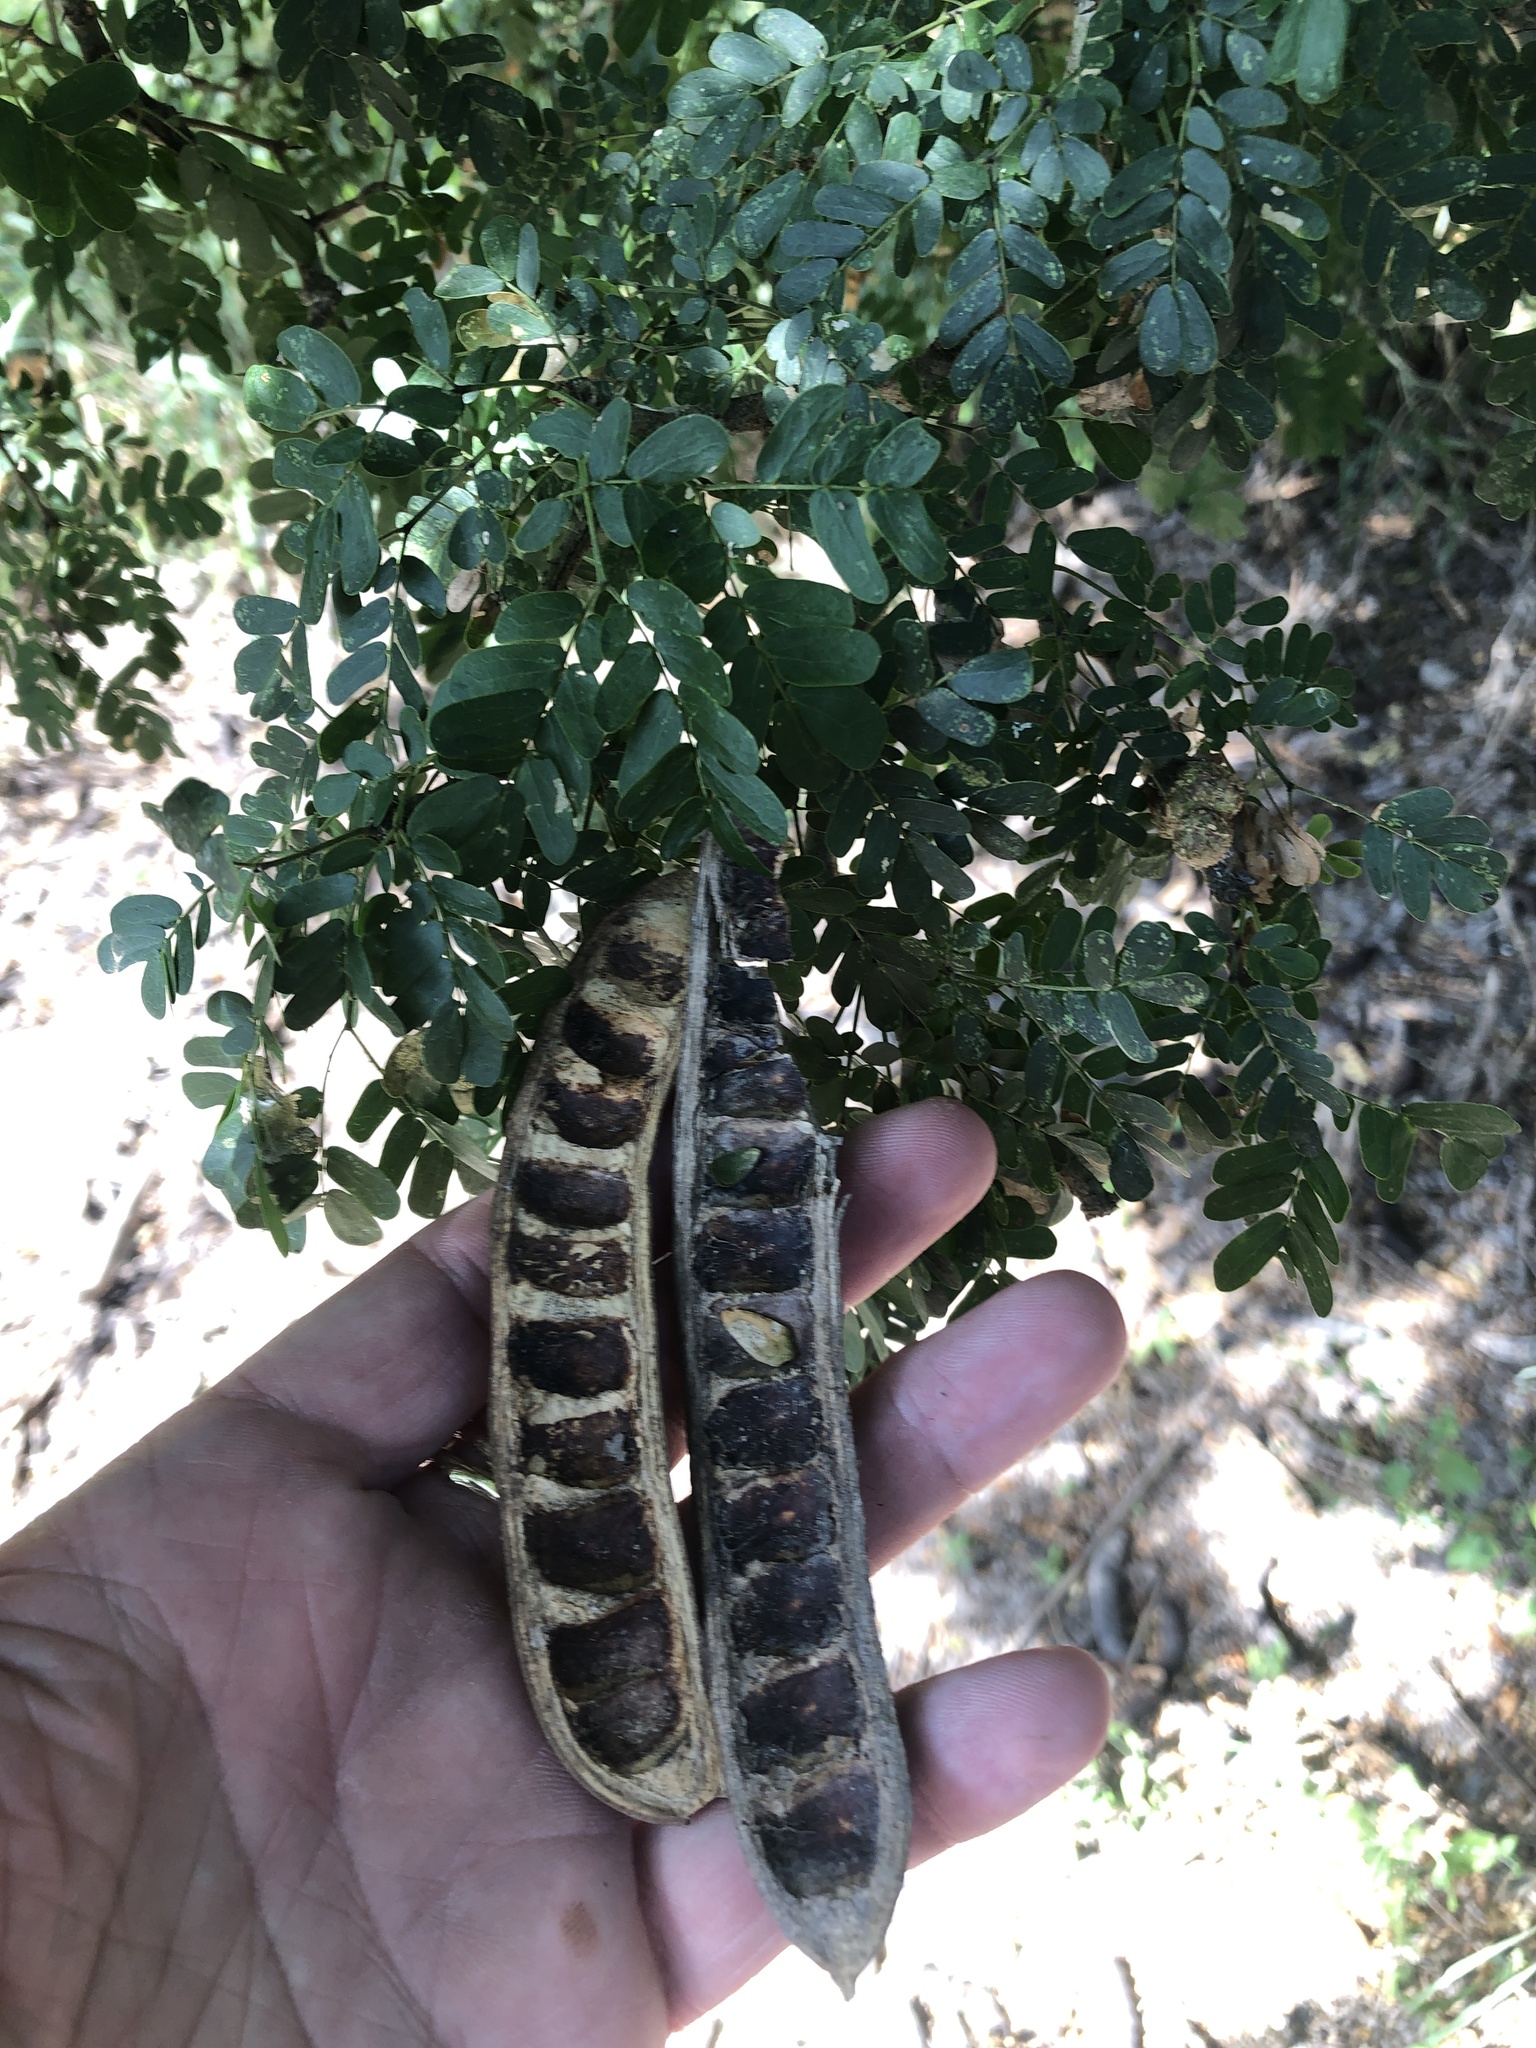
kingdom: Plantae
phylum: Tracheophyta
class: Magnoliopsida
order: Fabales
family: Fabaceae
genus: Ebenopsis
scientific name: Ebenopsis ebano
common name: Ebony blackbead
